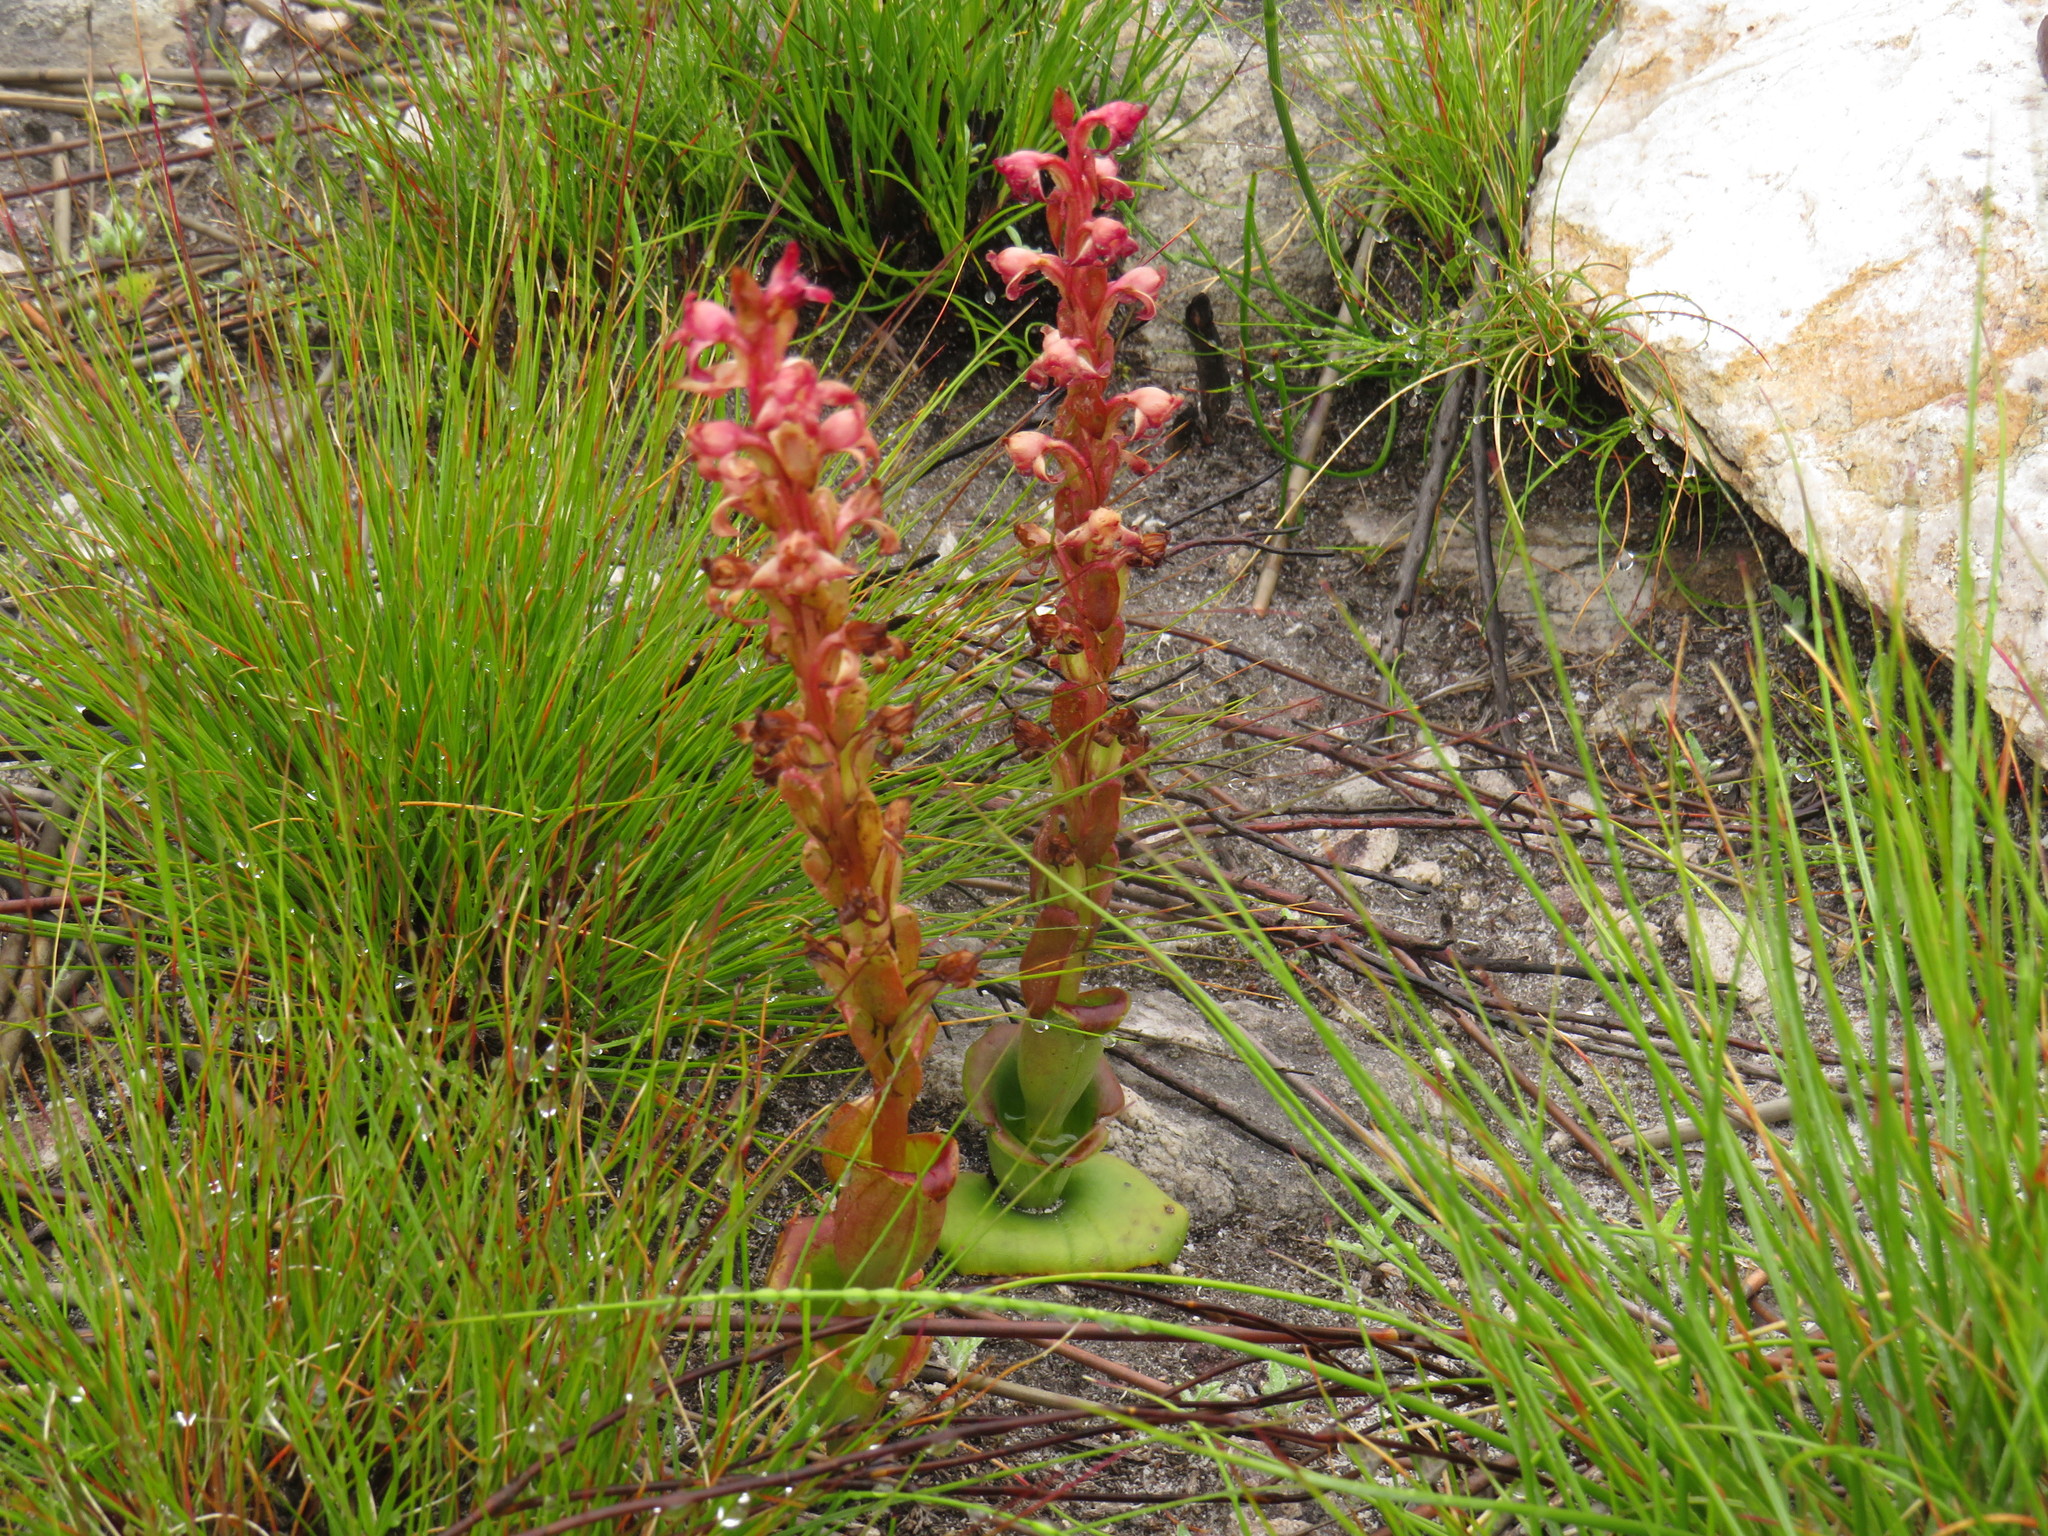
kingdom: Plantae
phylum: Tracheophyta
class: Liliopsida
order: Asparagales
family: Orchidaceae
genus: Satyrium
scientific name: Satyrium situsanguinum
